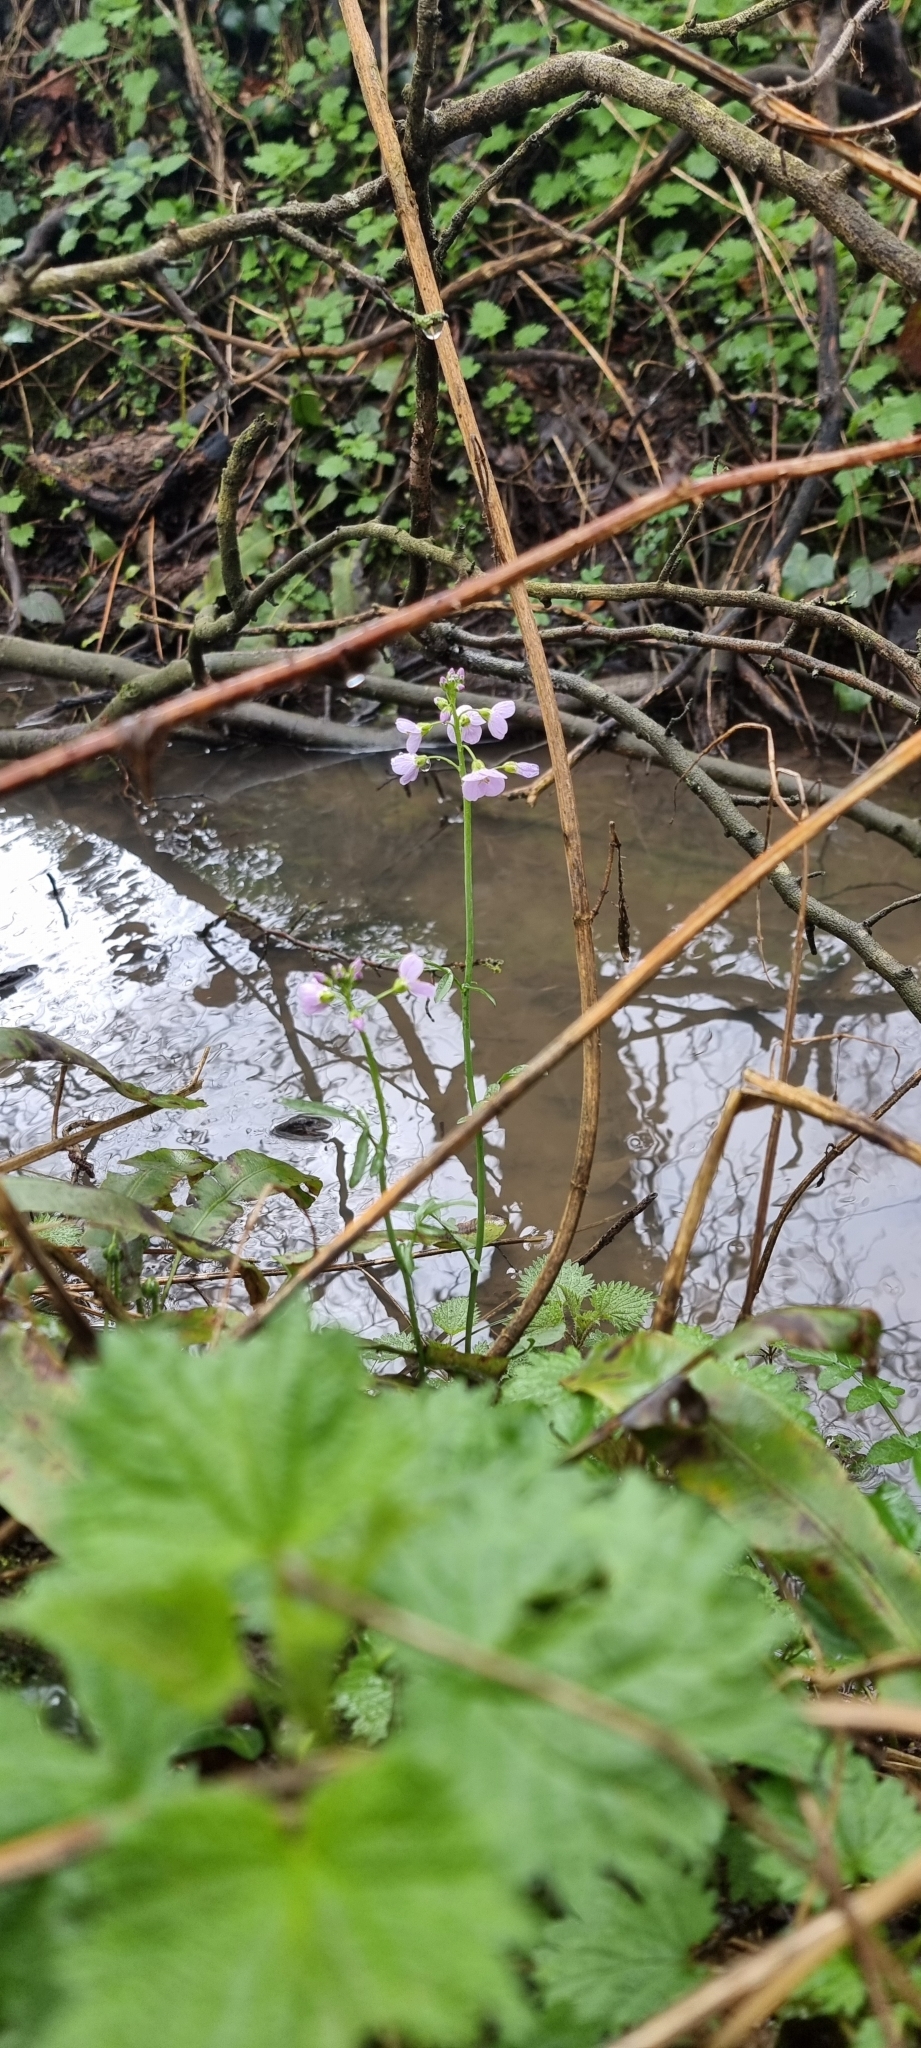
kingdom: Plantae
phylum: Tracheophyta
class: Magnoliopsida
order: Brassicales
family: Brassicaceae
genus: Cardamine
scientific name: Cardamine pratensis
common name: Cuckoo flower
